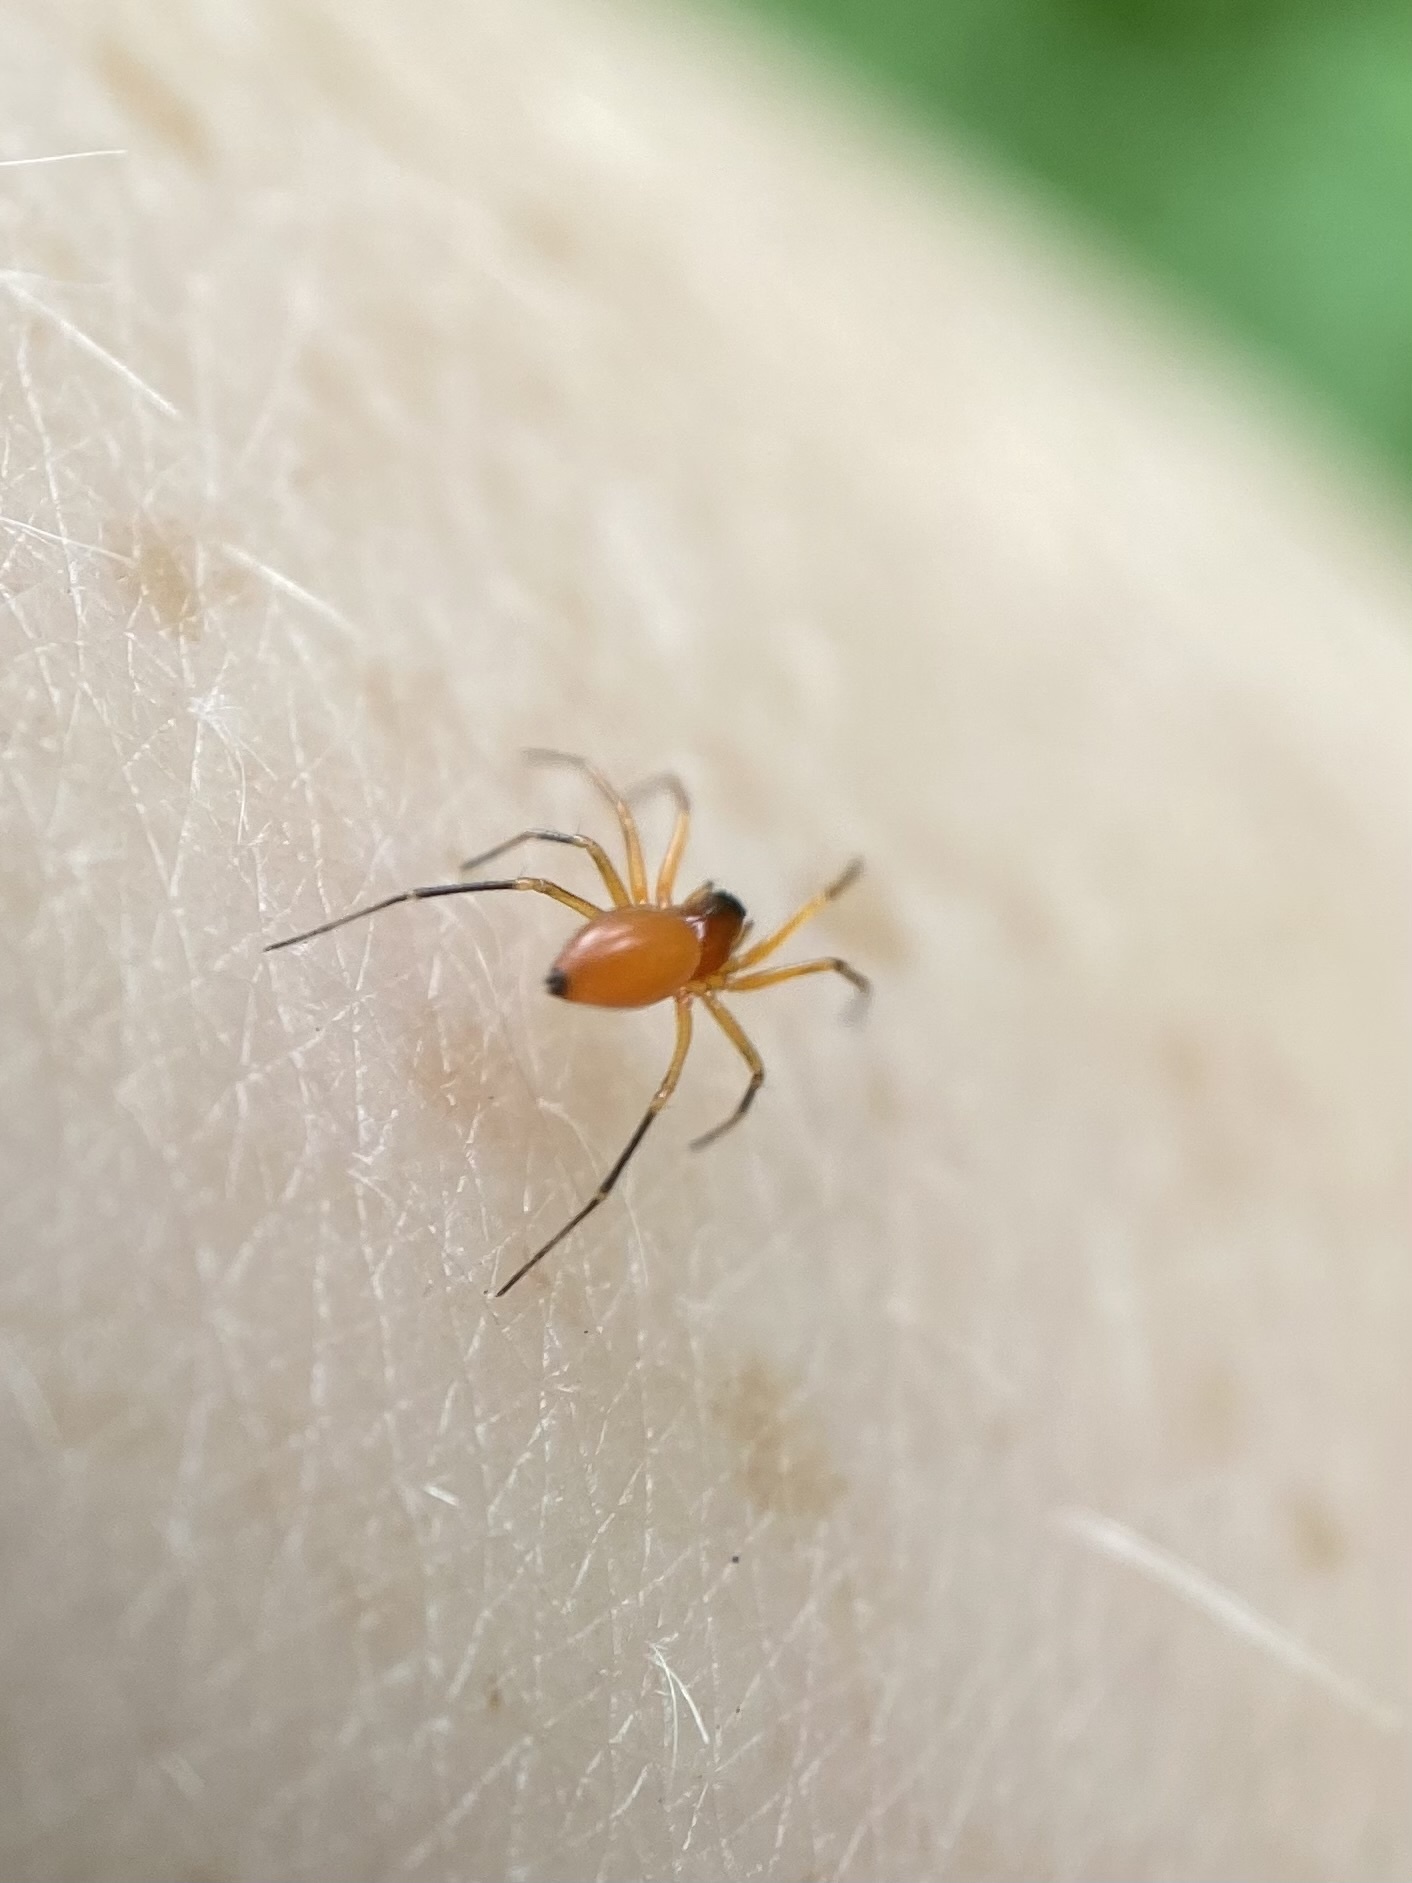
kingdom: Animalia
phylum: Arthropoda
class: Arachnida
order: Araneae
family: Linyphiidae
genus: Florinda
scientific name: Florinda coccinea
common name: Black-tailed red sheetweaver
